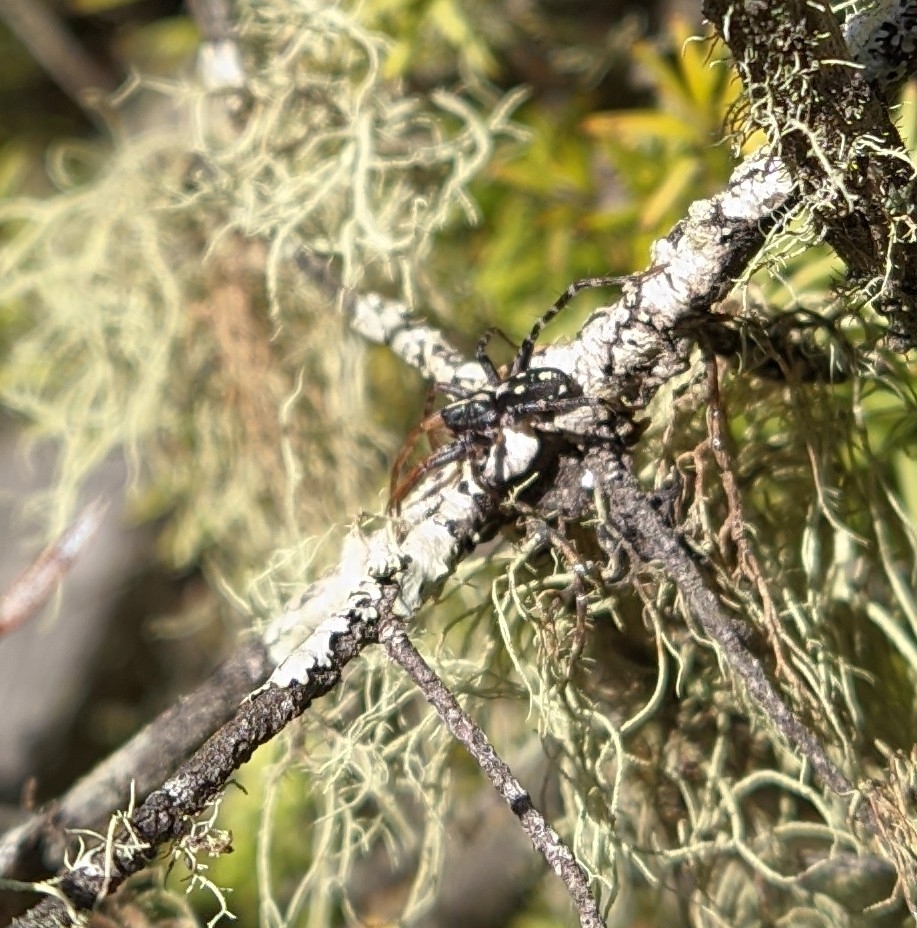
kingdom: Animalia
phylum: Arthropoda
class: Arachnida
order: Araneae
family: Corinnidae
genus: Nyssus
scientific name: Nyssus coloripes
